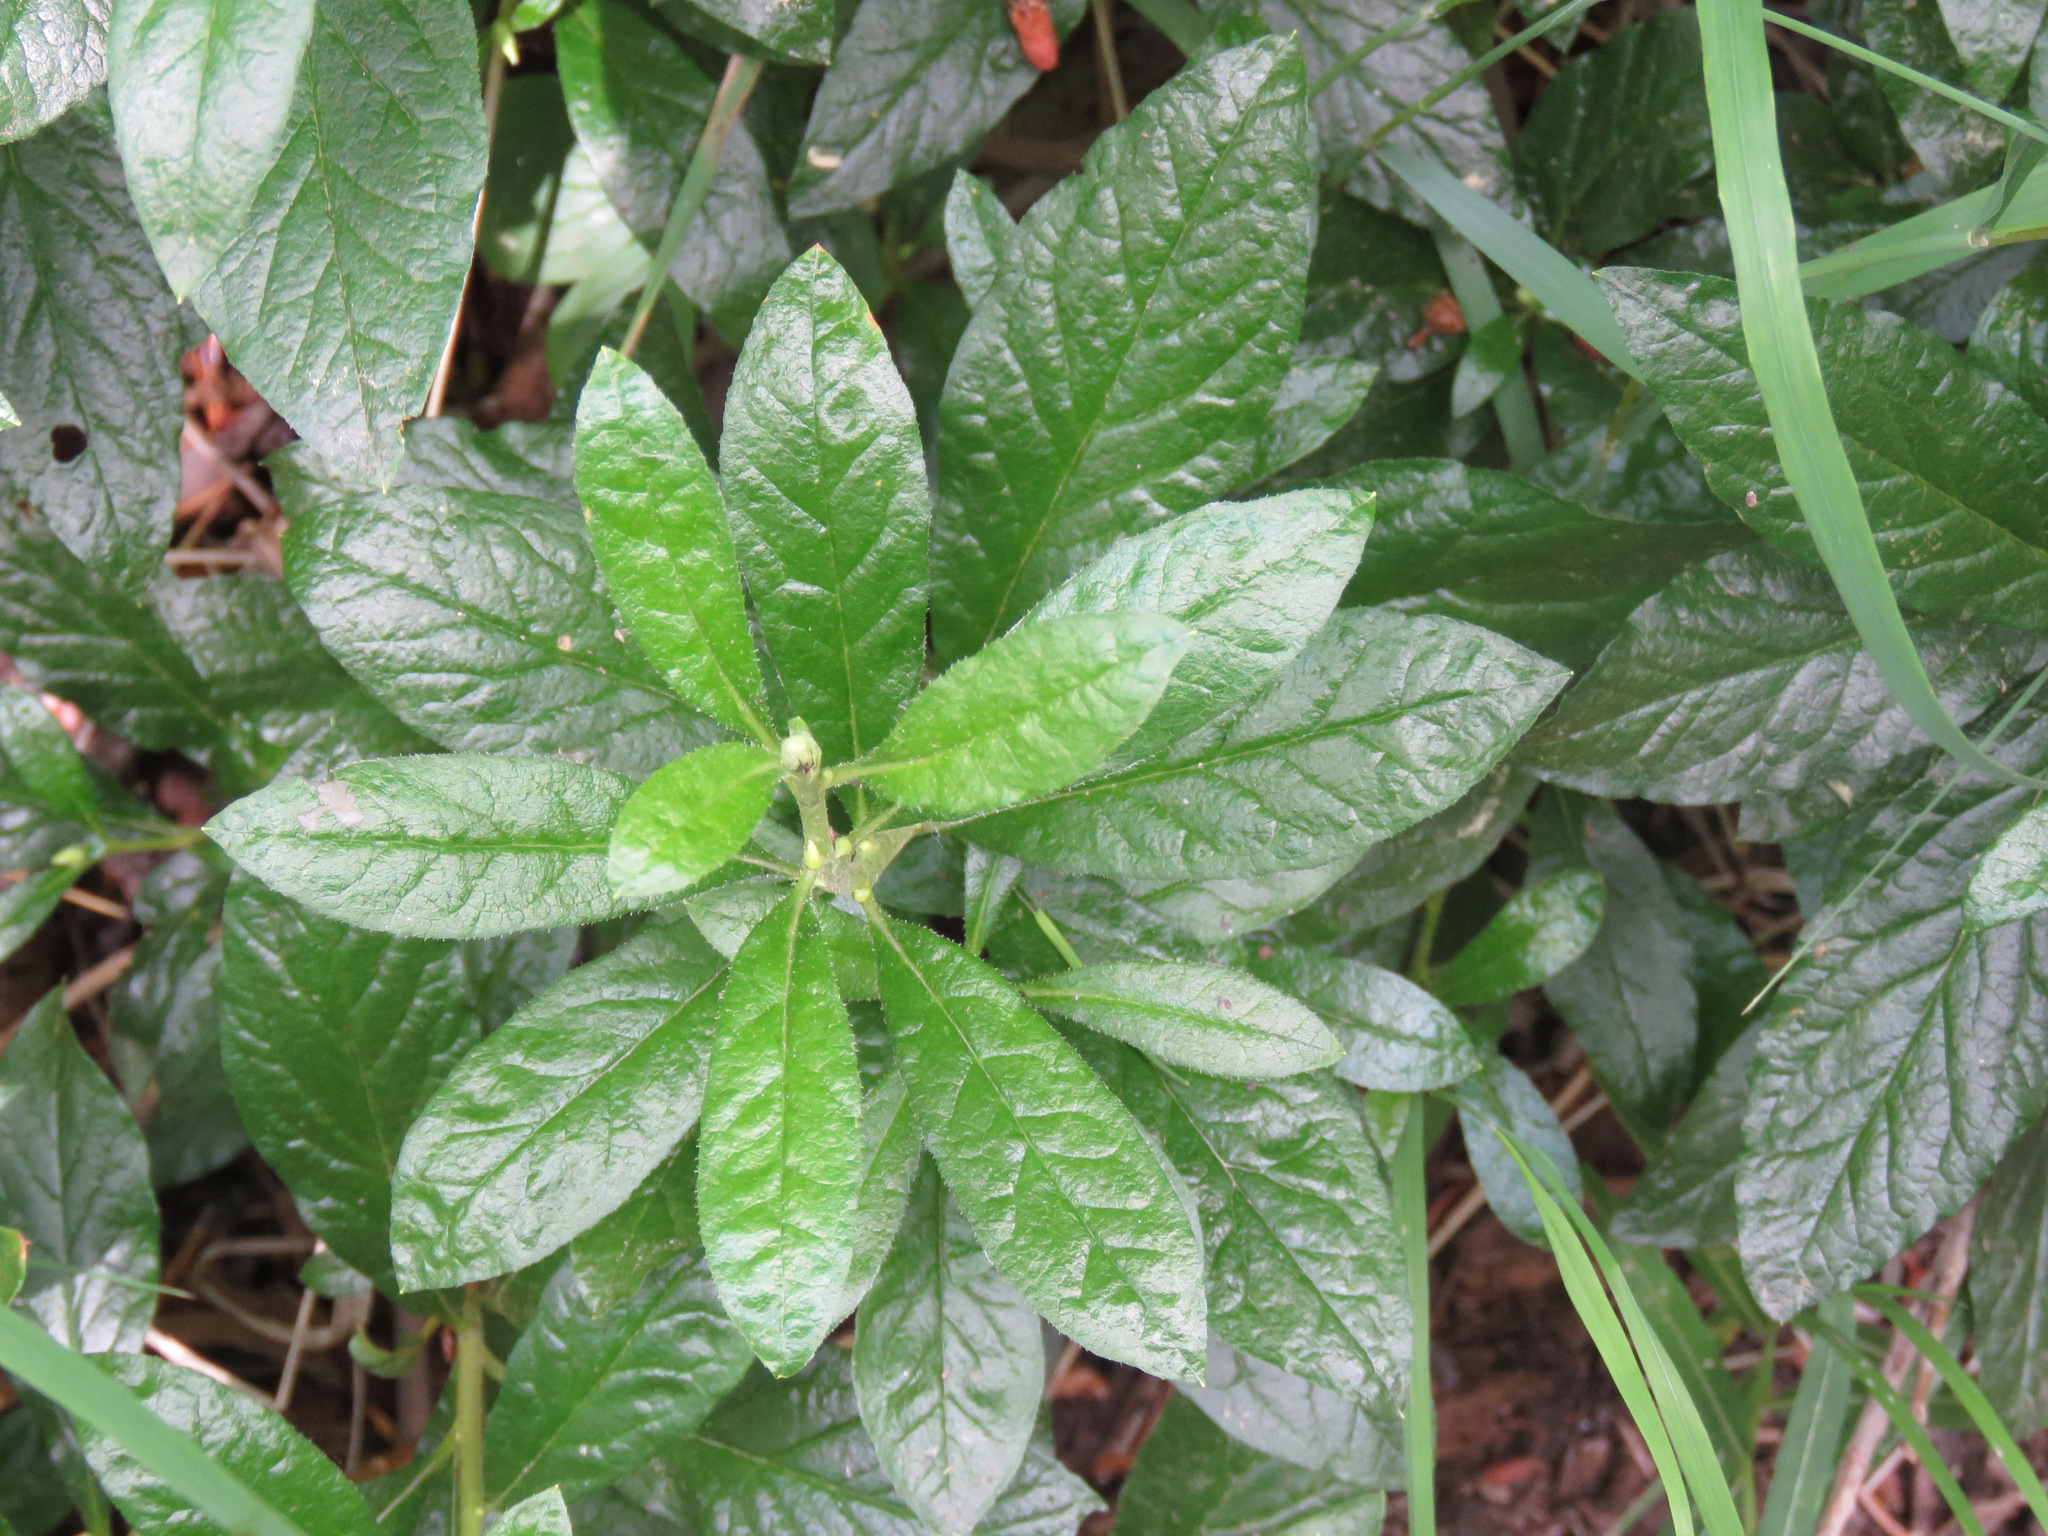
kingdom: Plantae
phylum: Tracheophyta
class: Magnoliopsida
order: Ericales
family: Ericaceae
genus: Rhododendron
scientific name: Rhododendron albiflorum
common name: White rhododendron
